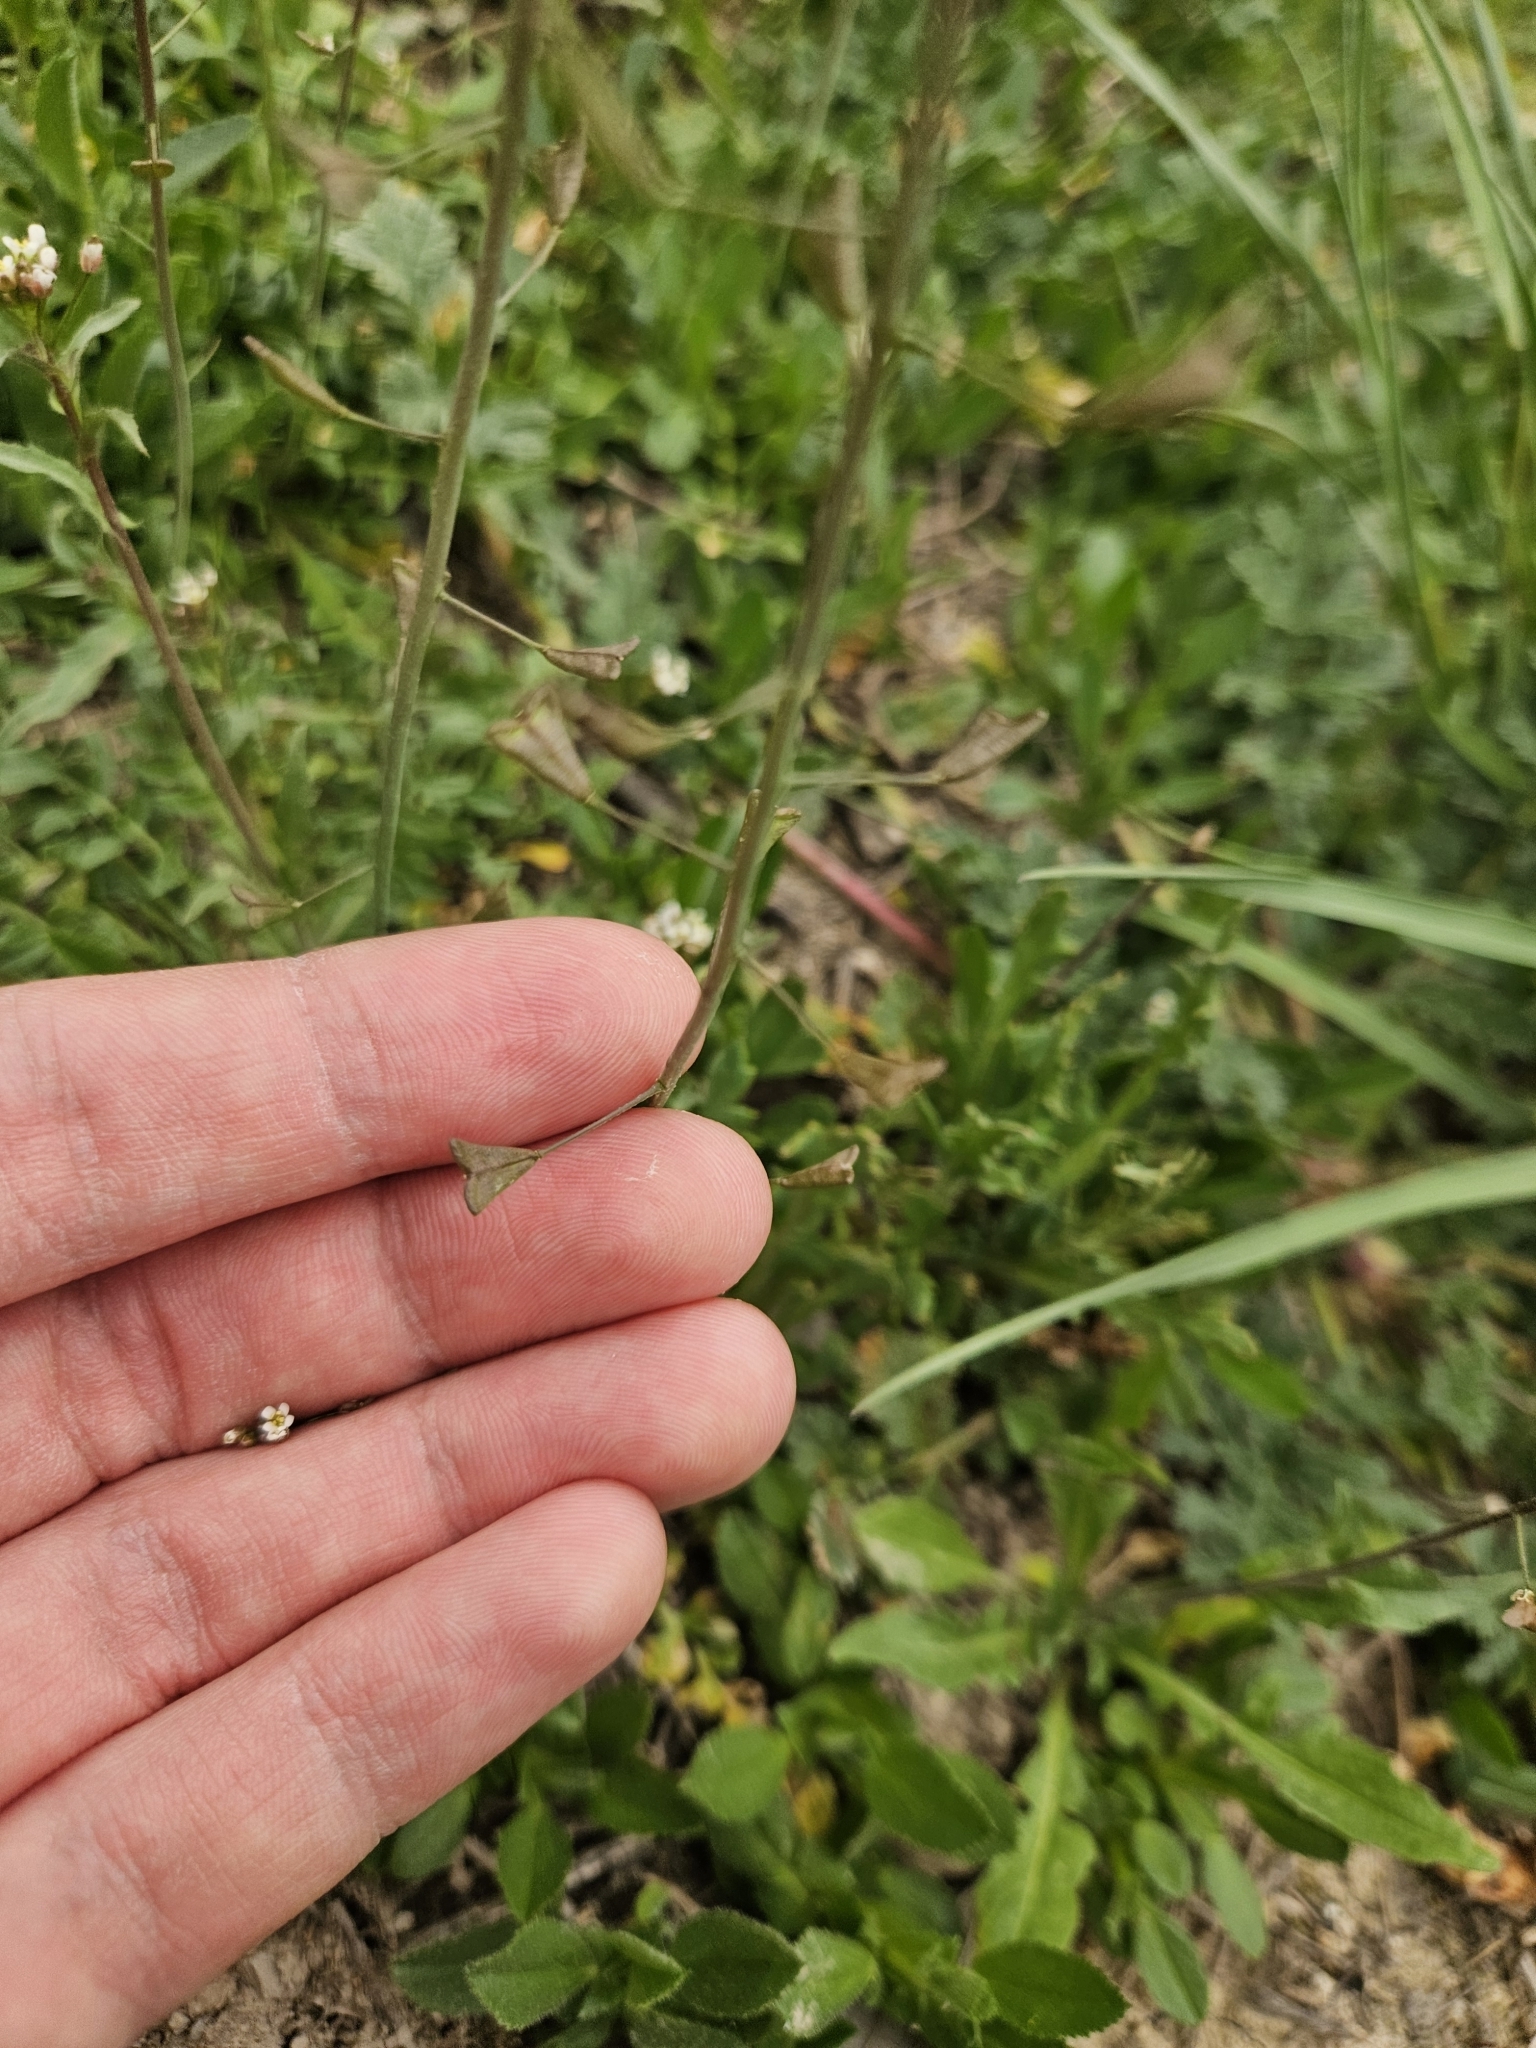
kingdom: Plantae
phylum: Tracheophyta
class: Magnoliopsida
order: Brassicales
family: Brassicaceae
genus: Capsella
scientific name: Capsella bursa-pastoris
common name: Shepherd's purse
